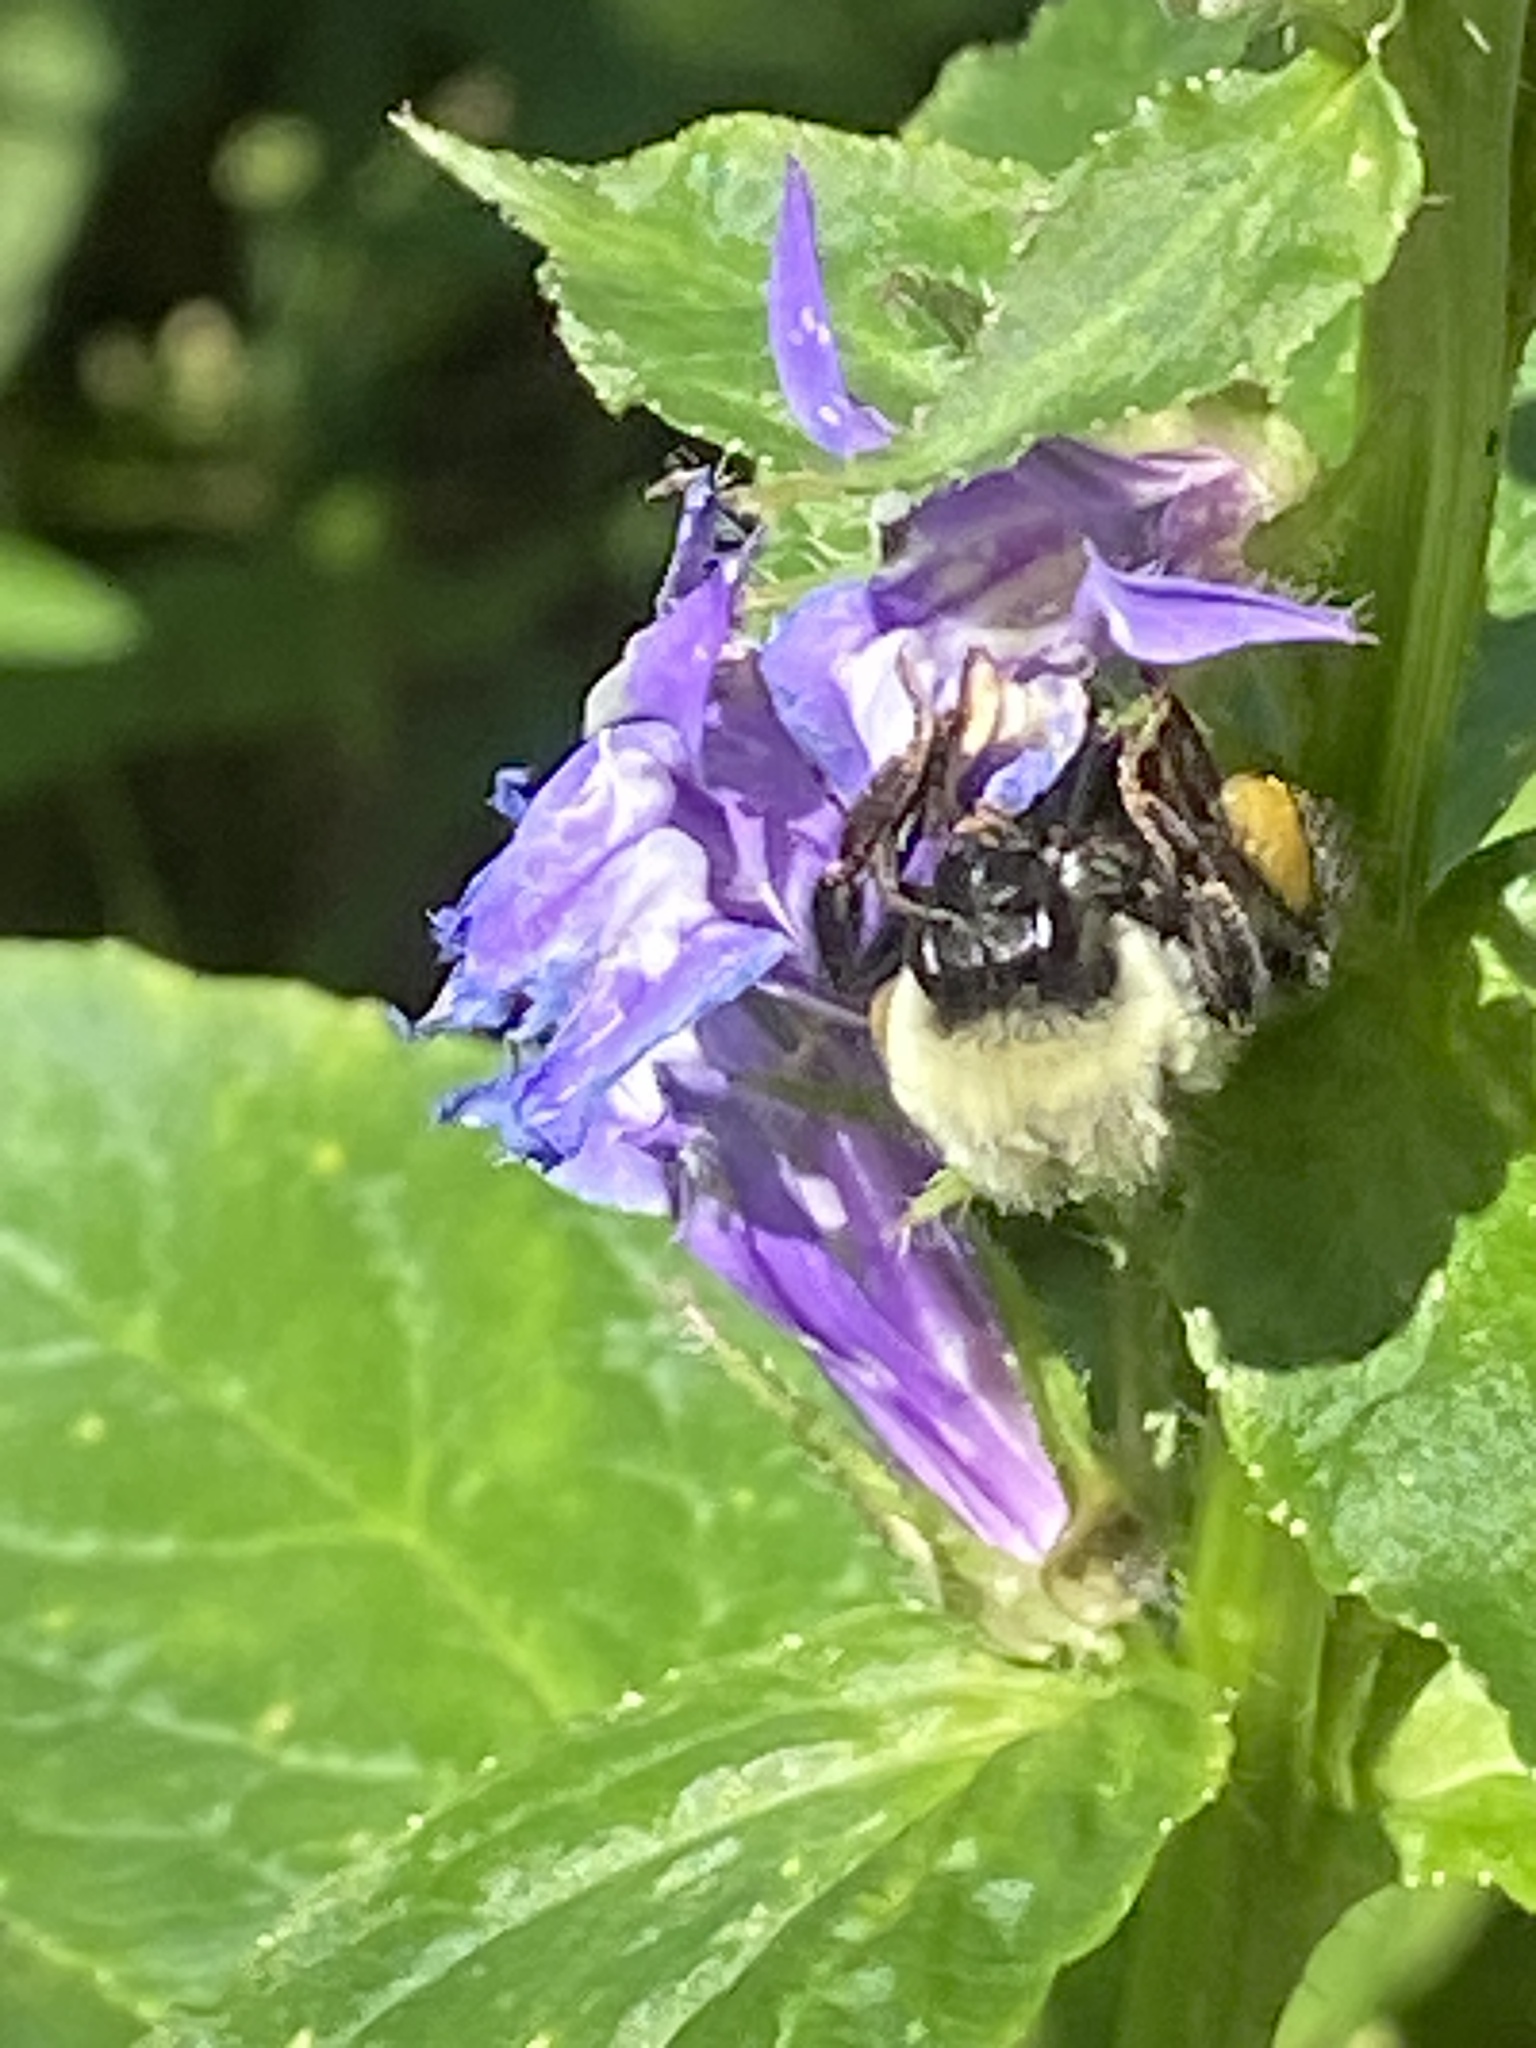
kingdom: Animalia
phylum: Arthropoda
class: Insecta
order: Hymenoptera
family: Apidae
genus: Bombus
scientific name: Bombus impatiens
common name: Common eastern bumble bee
